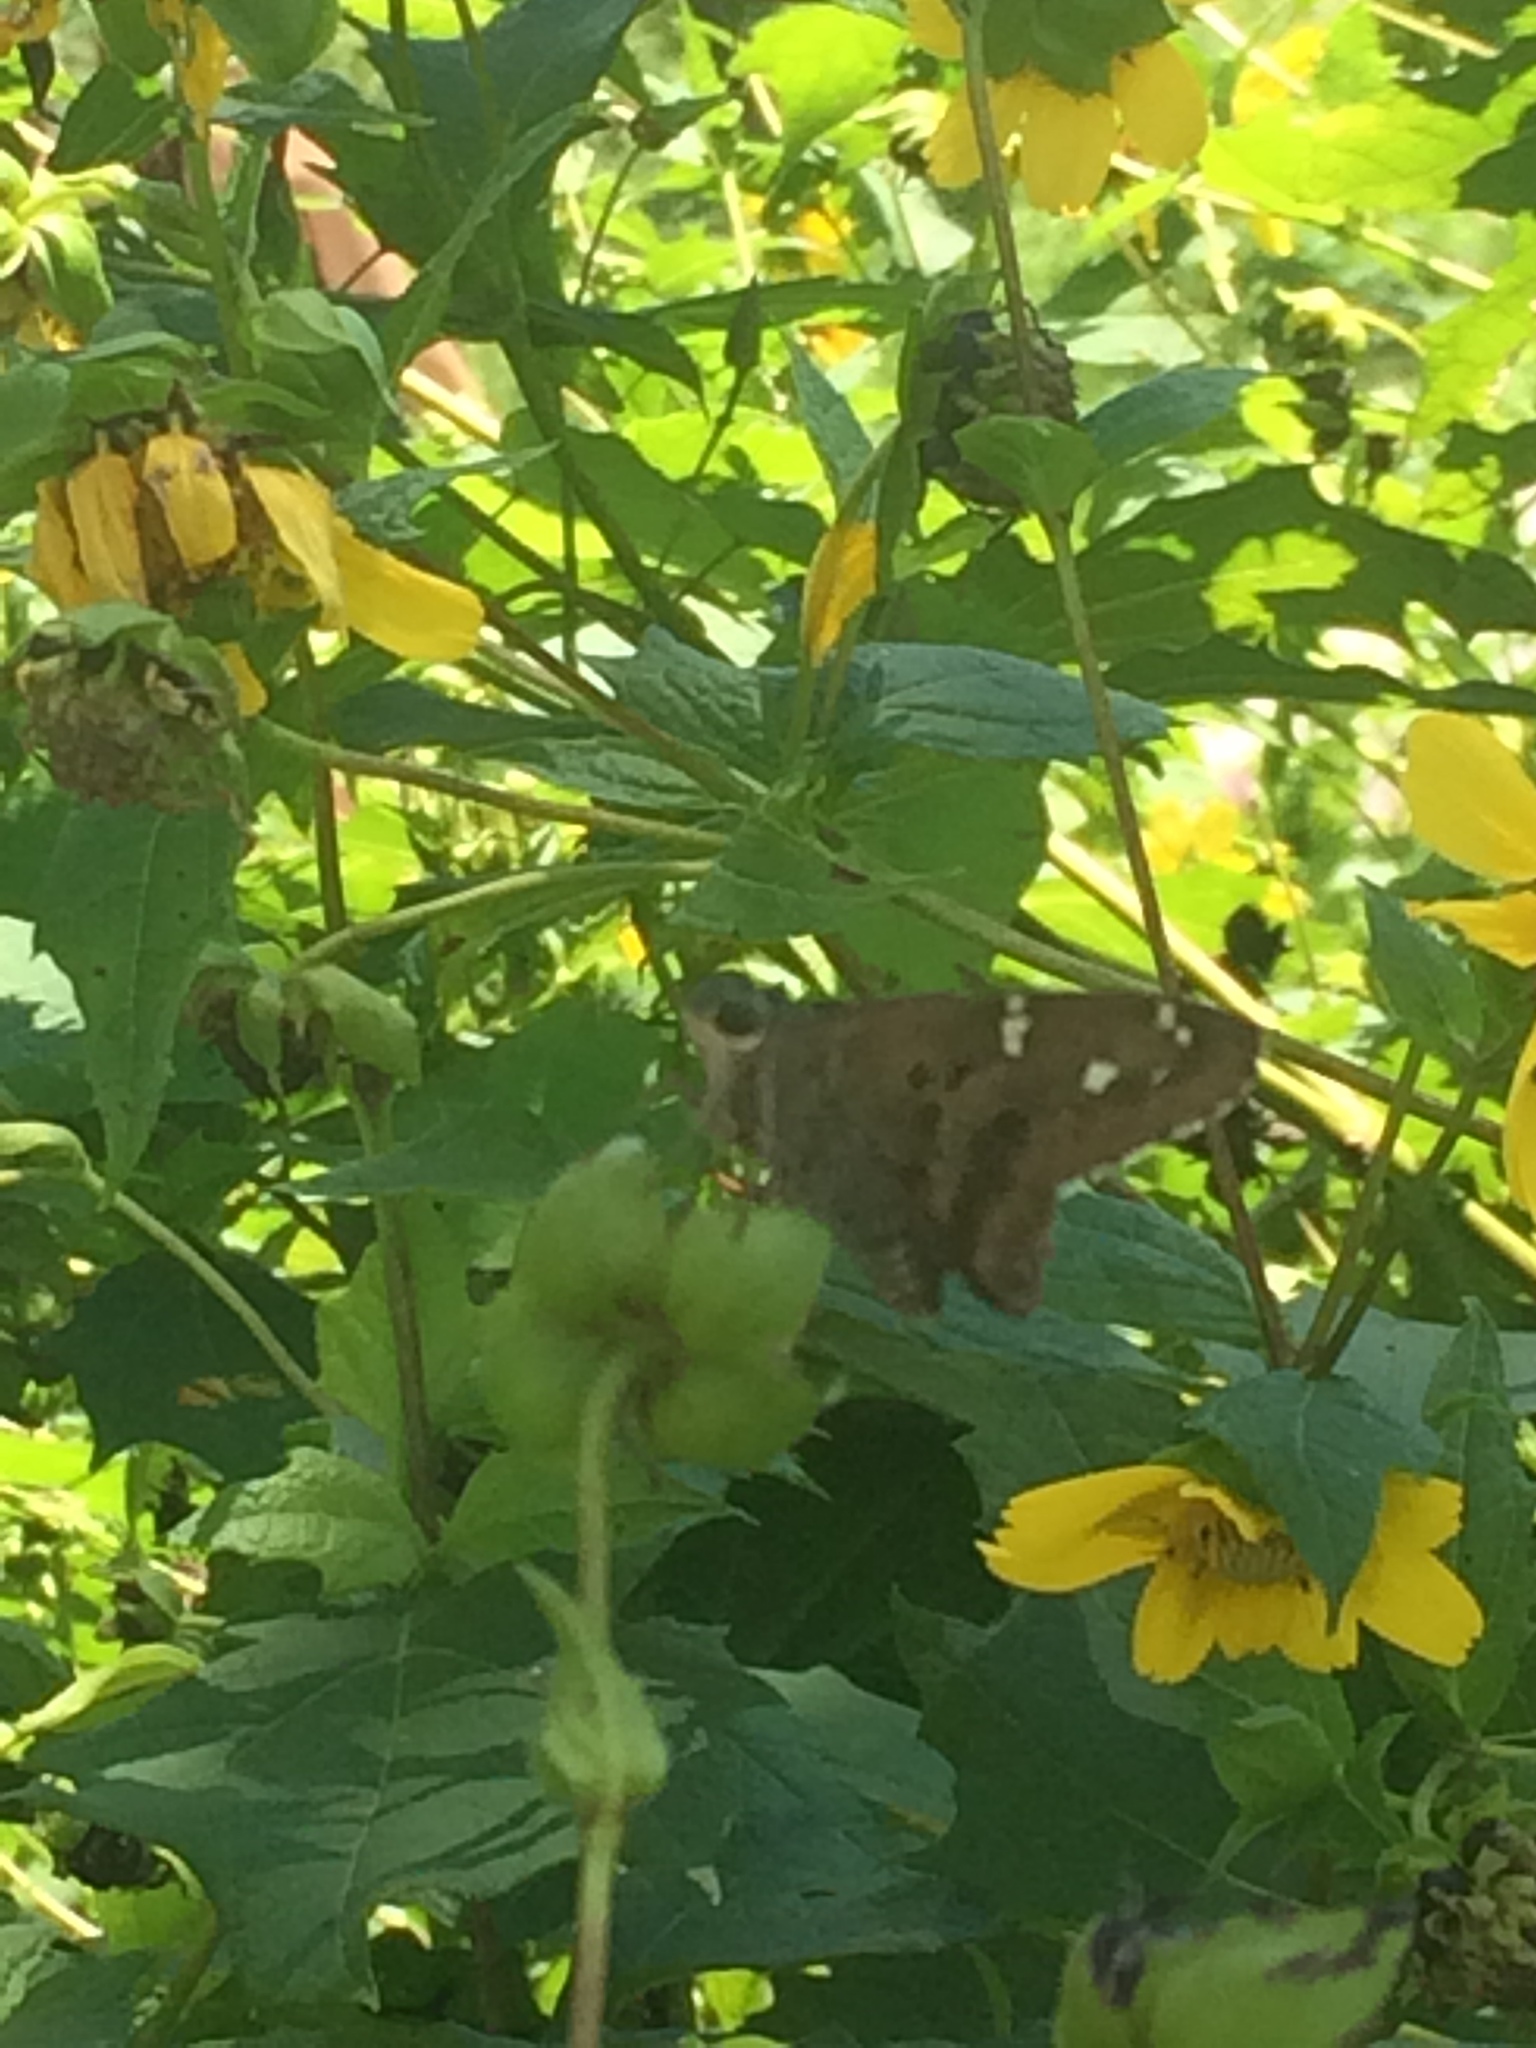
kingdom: Animalia
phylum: Arthropoda
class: Insecta
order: Lepidoptera
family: Hesperiidae
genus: Urbanus
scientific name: Urbanus proteus
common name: Long-tailed skipper
